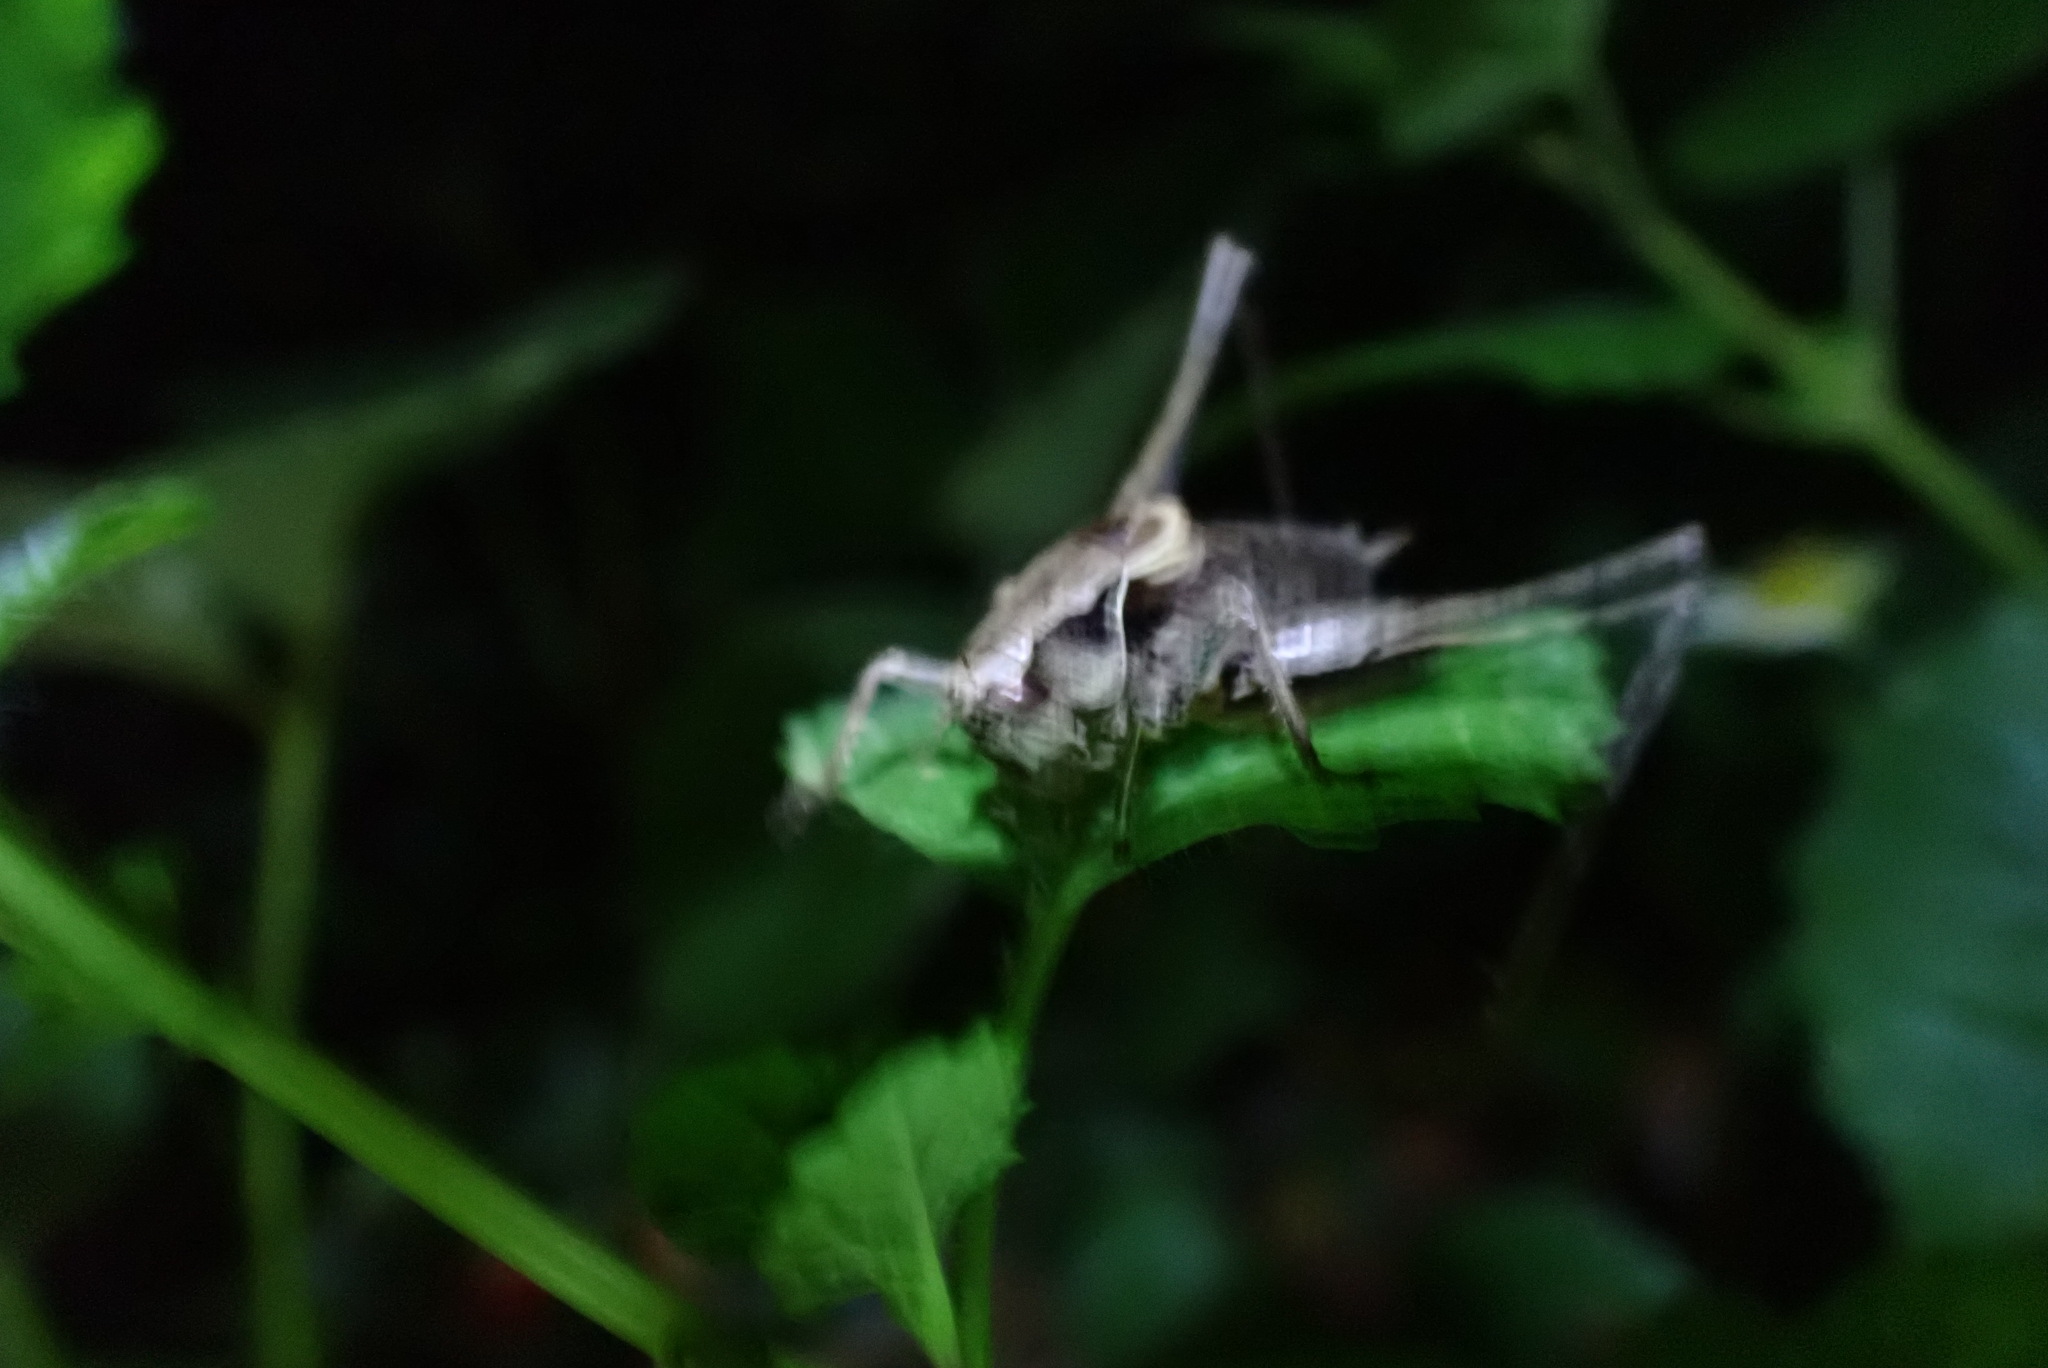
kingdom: Animalia
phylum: Arthropoda
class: Insecta
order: Orthoptera
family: Tettigoniidae
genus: Pholidoptera
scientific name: Pholidoptera griseoaptera
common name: Dark bush-cricket
